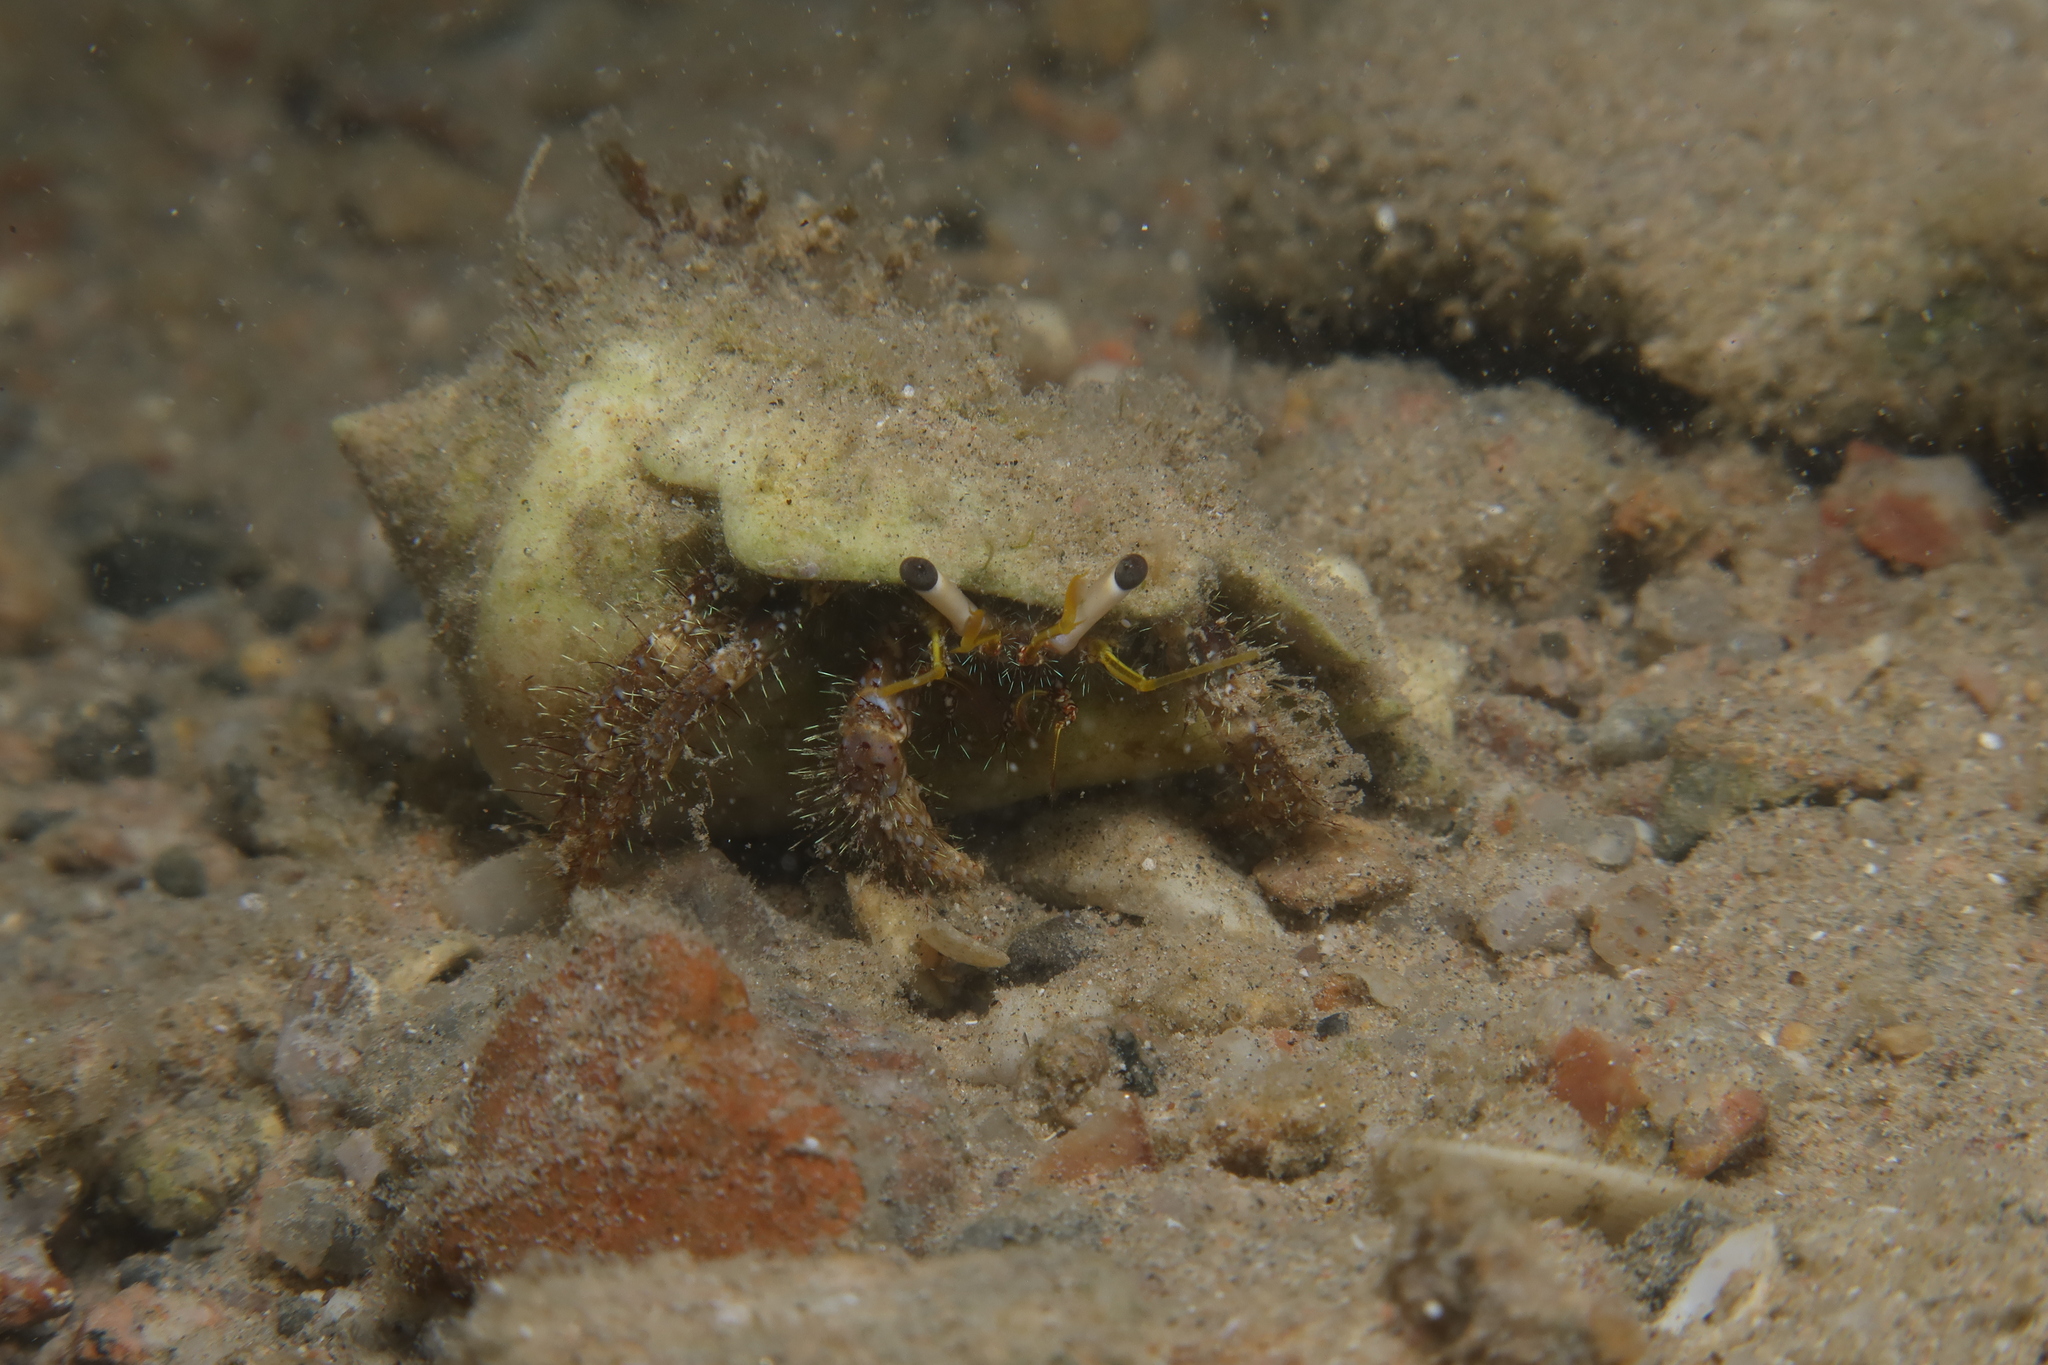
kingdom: Animalia
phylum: Arthropoda
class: Malacostraca
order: Decapoda
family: Diogenidae
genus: Dardanus
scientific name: Dardanus lagopodes
